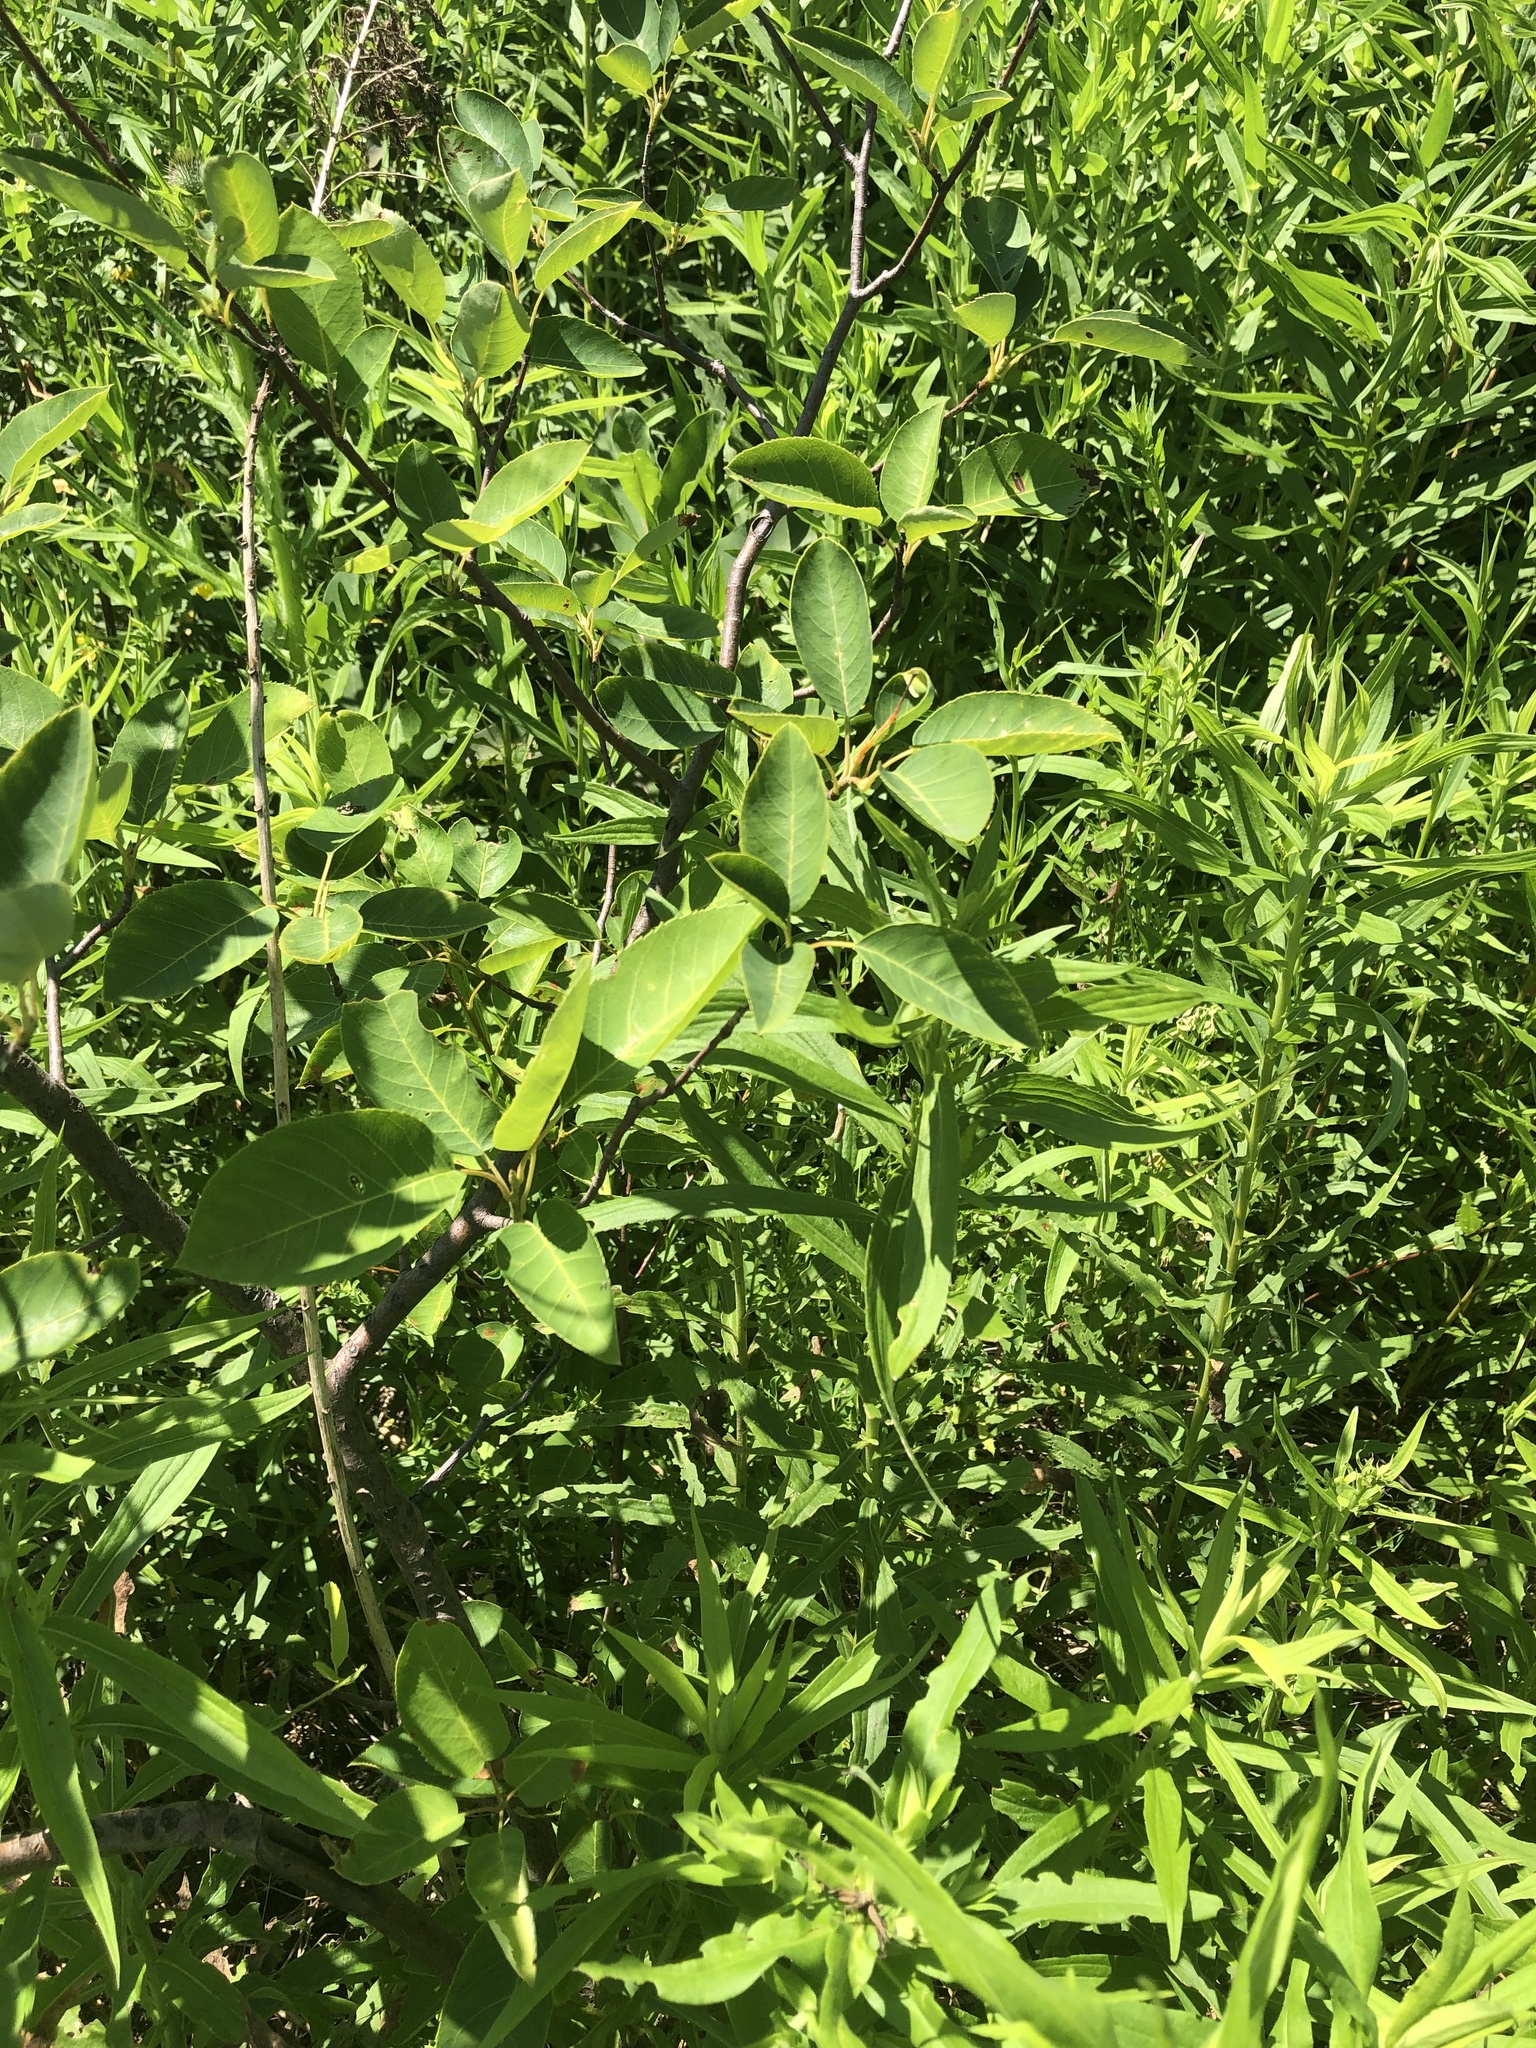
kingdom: Plantae
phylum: Tracheophyta
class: Magnoliopsida
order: Rosales
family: Rosaceae
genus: Prunus
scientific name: Prunus virginiana
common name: Chokecherry
